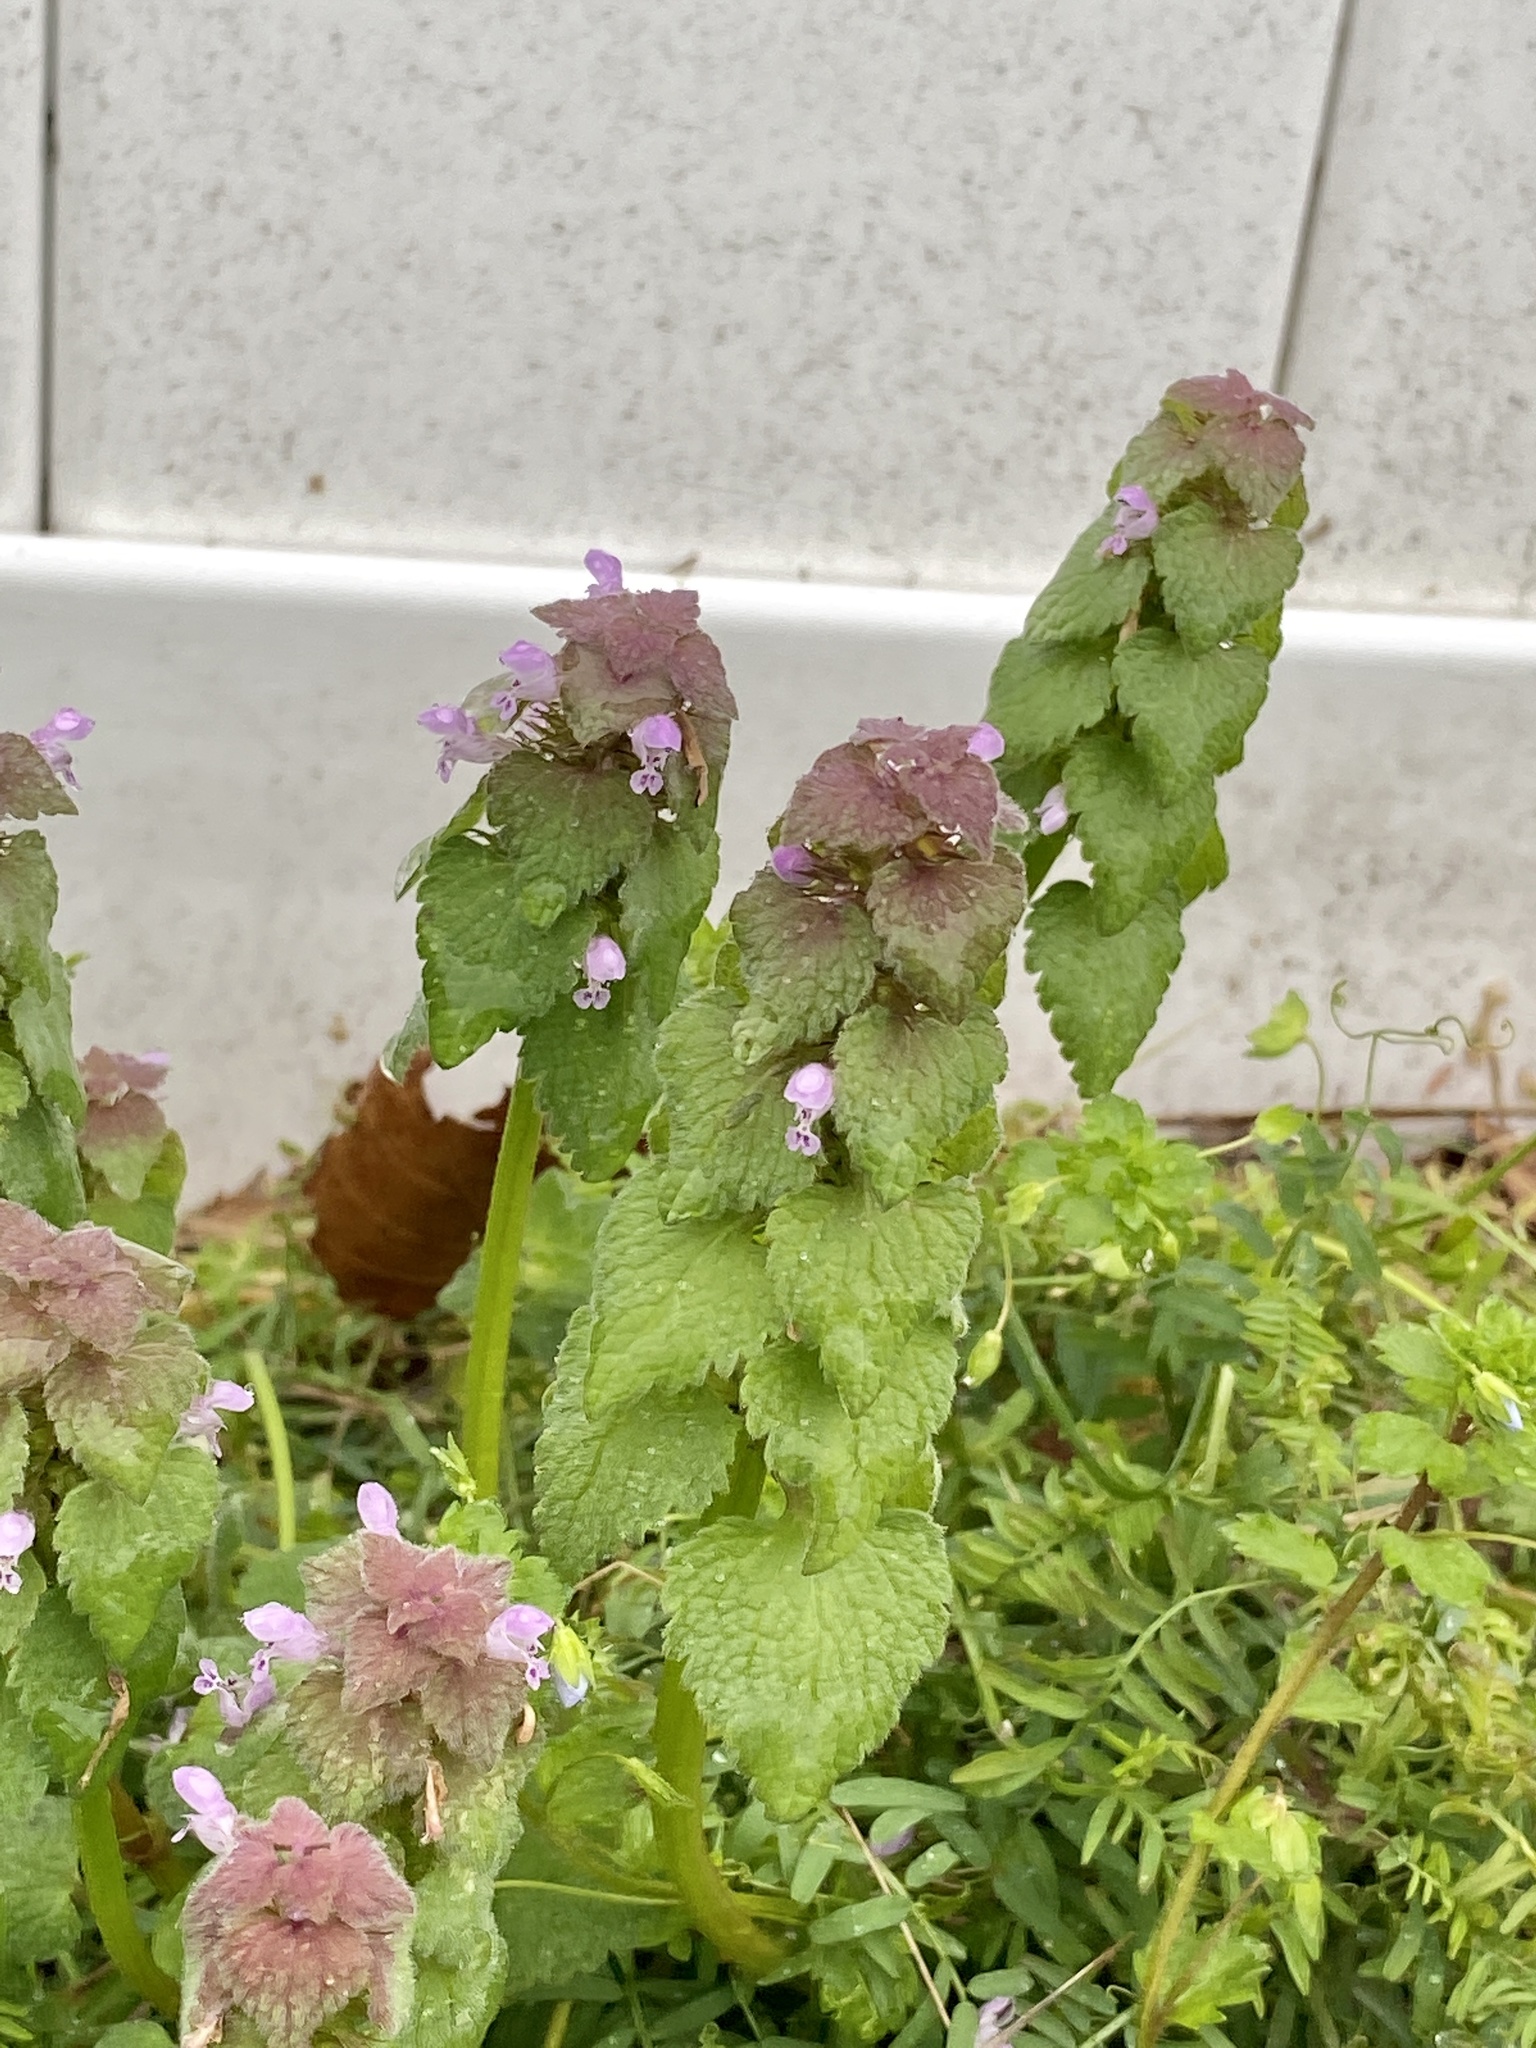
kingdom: Plantae
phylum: Tracheophyta
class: Magnoliopsida
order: Lamiales
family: Lamiaceae
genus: Lamium
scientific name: Lamium purpureum
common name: Red dead-nettle
